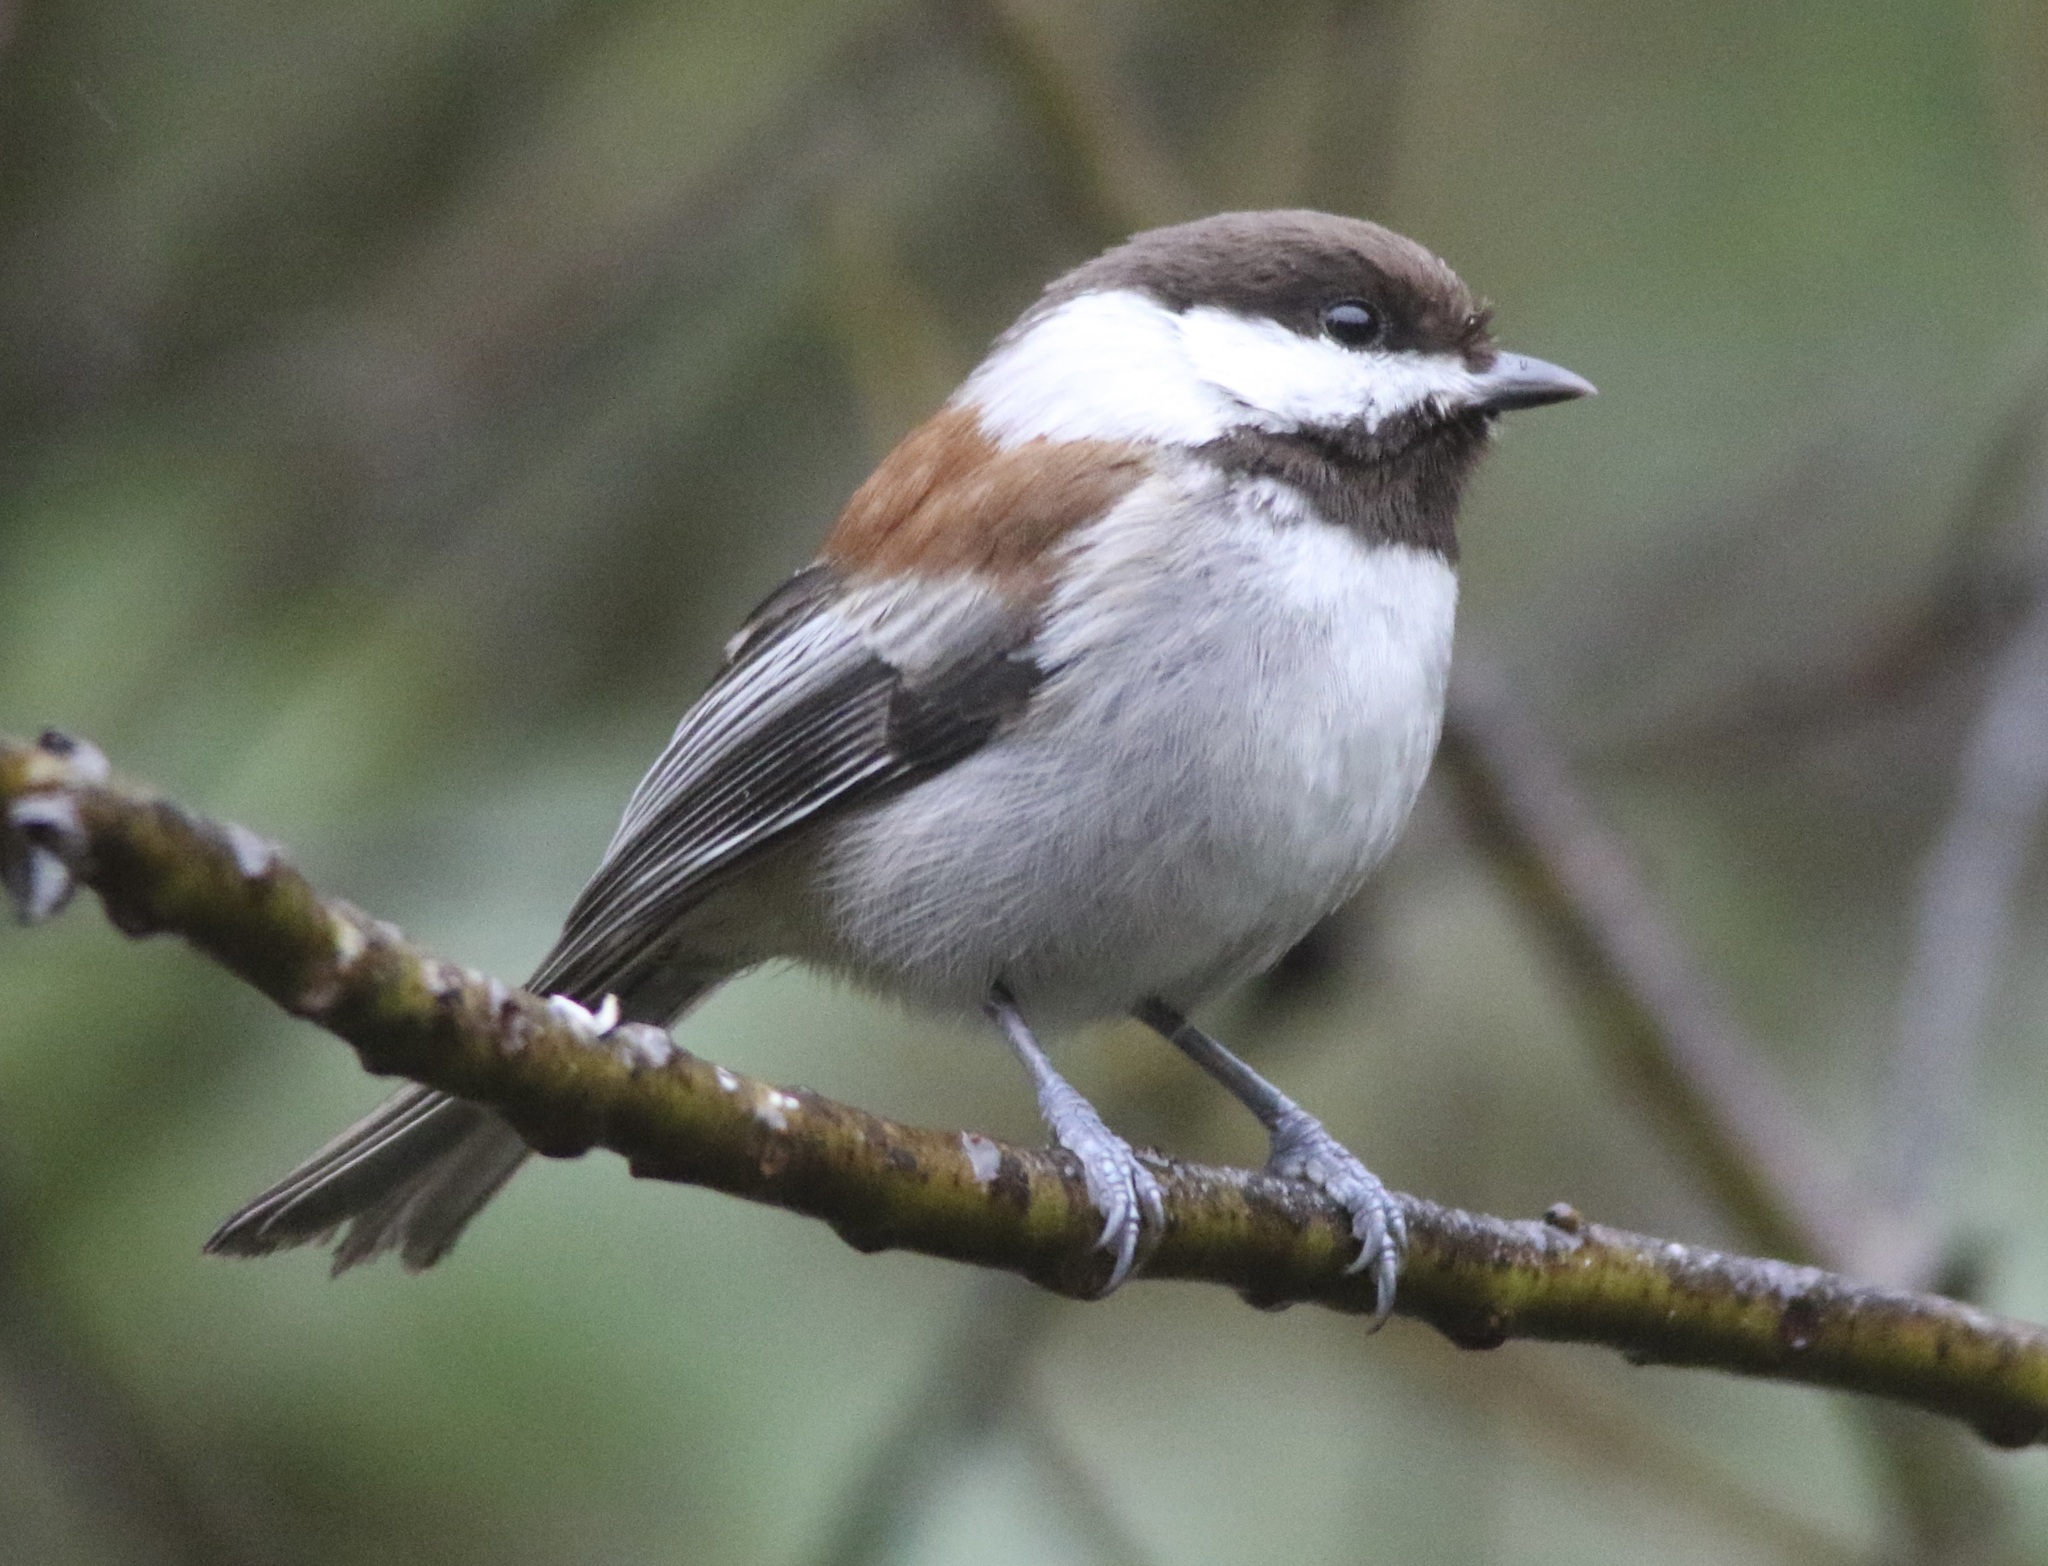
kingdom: Animalia
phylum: Chordata
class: Aves
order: Passeriformes
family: Paridae
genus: Poecile
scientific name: Poecile rufescens
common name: Chestnut-backed chickadee
